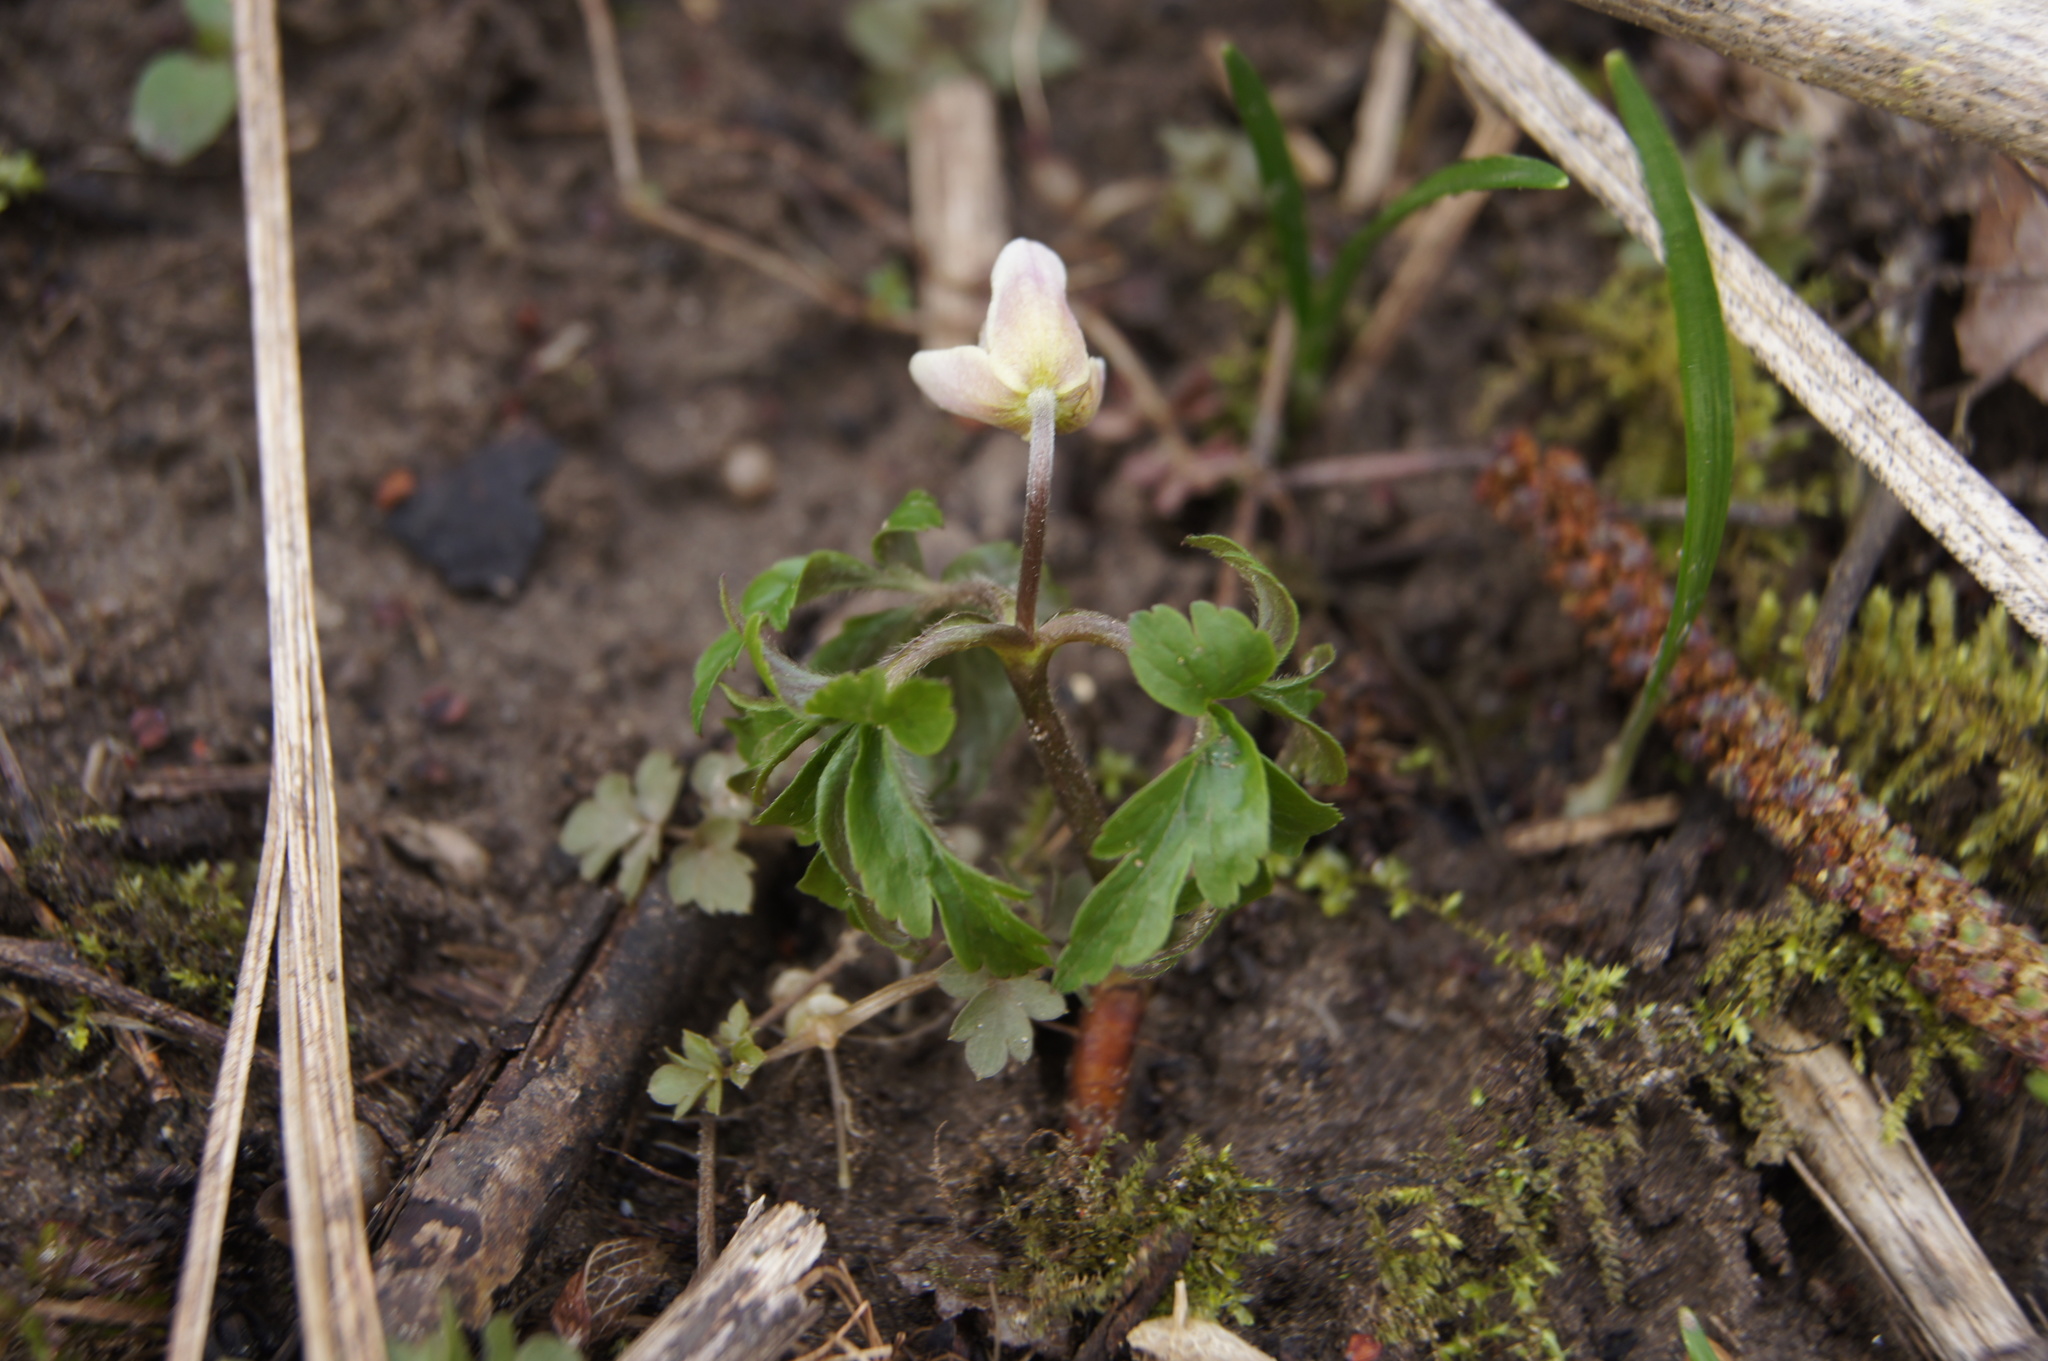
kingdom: Plantae
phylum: Tracheophyta
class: Magnoliopsida
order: Ranunculales
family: Ranunculaceae
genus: Anemone
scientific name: Anemone nemorosa
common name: Wood anemone
